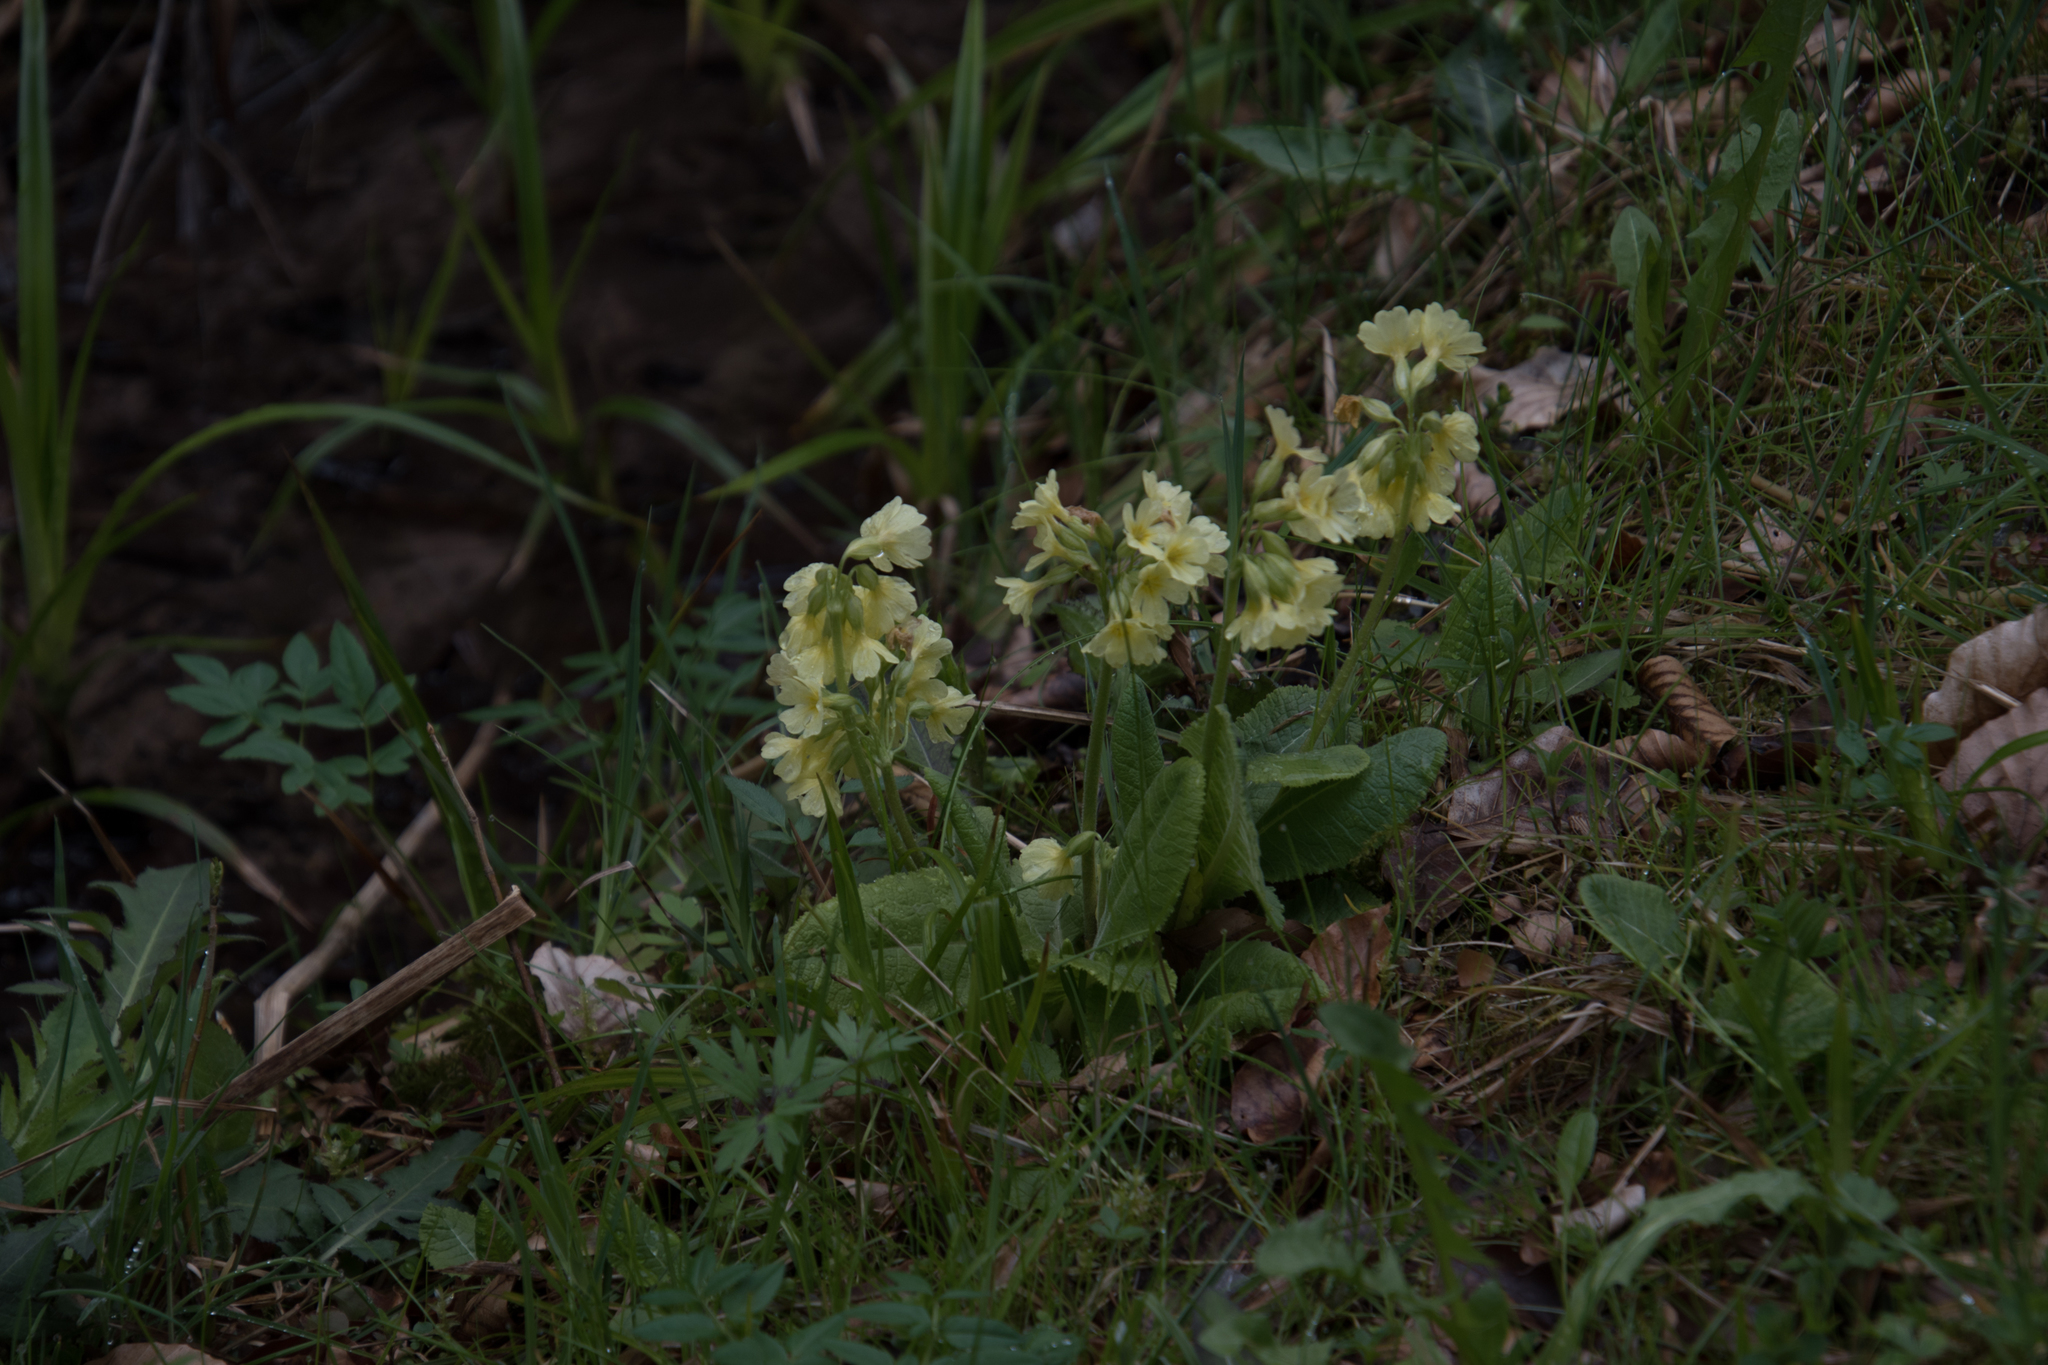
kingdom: Plantae
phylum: Tracheophyta
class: Magnoliopsida
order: Ericales
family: Primulaceae
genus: Primula
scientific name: Primula elatior
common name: Oxlip
